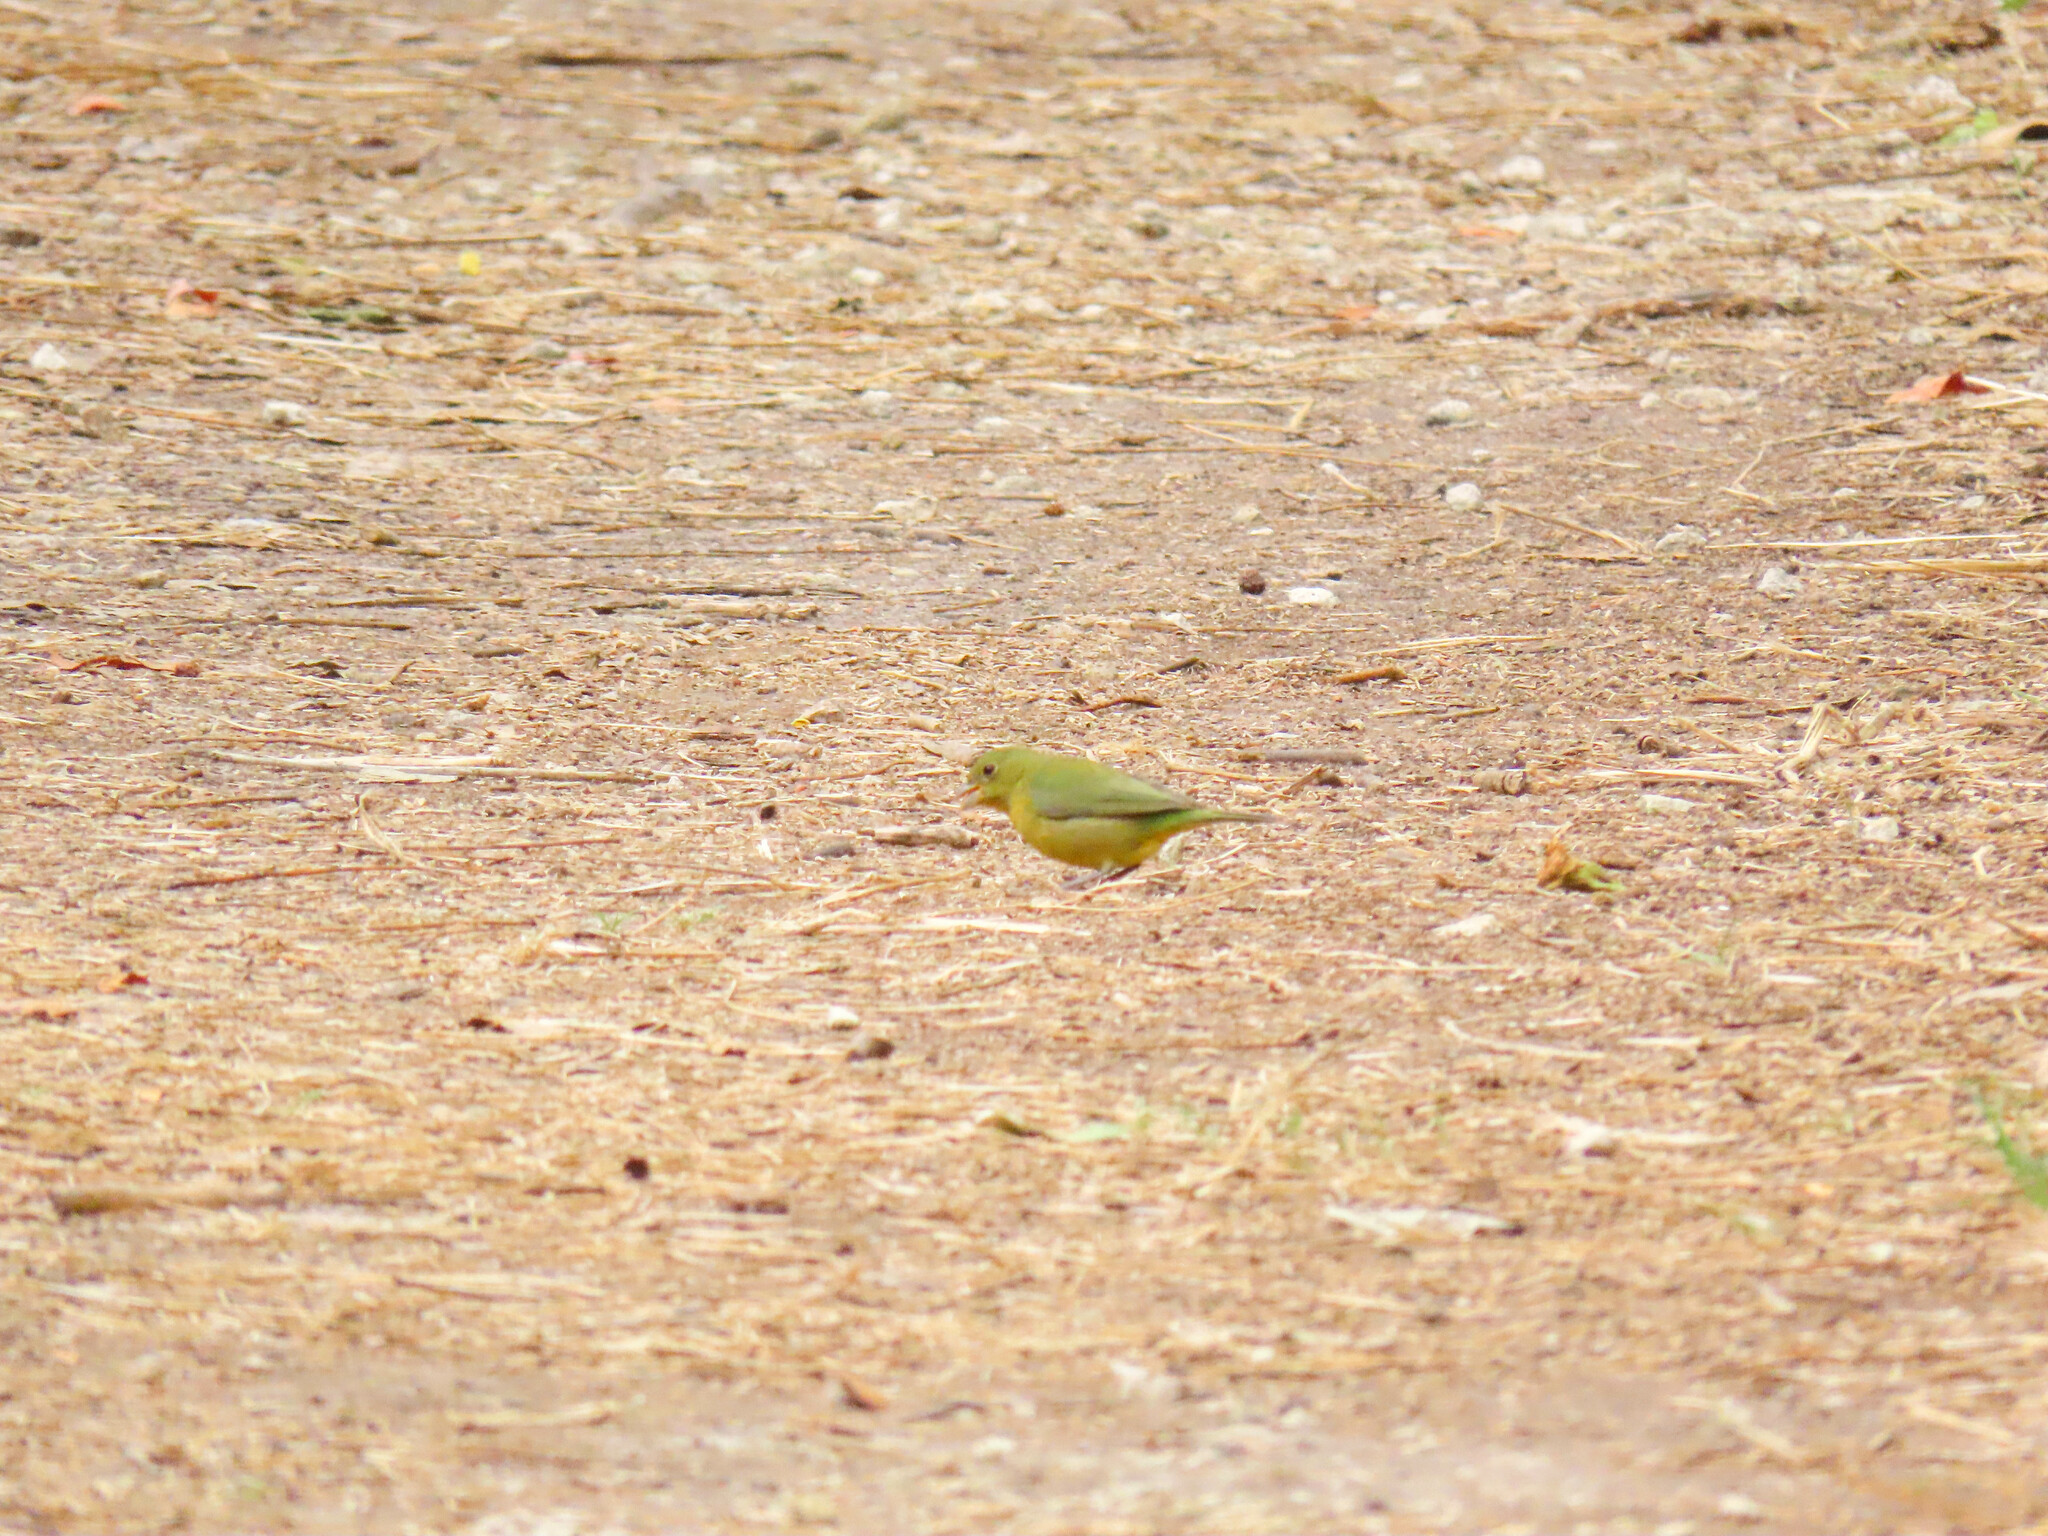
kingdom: Animalia
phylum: Chordata
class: Aves
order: Passeriformes
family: Cardinalidae
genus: Passerina
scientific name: Passerina ciris
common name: Painted bunting
